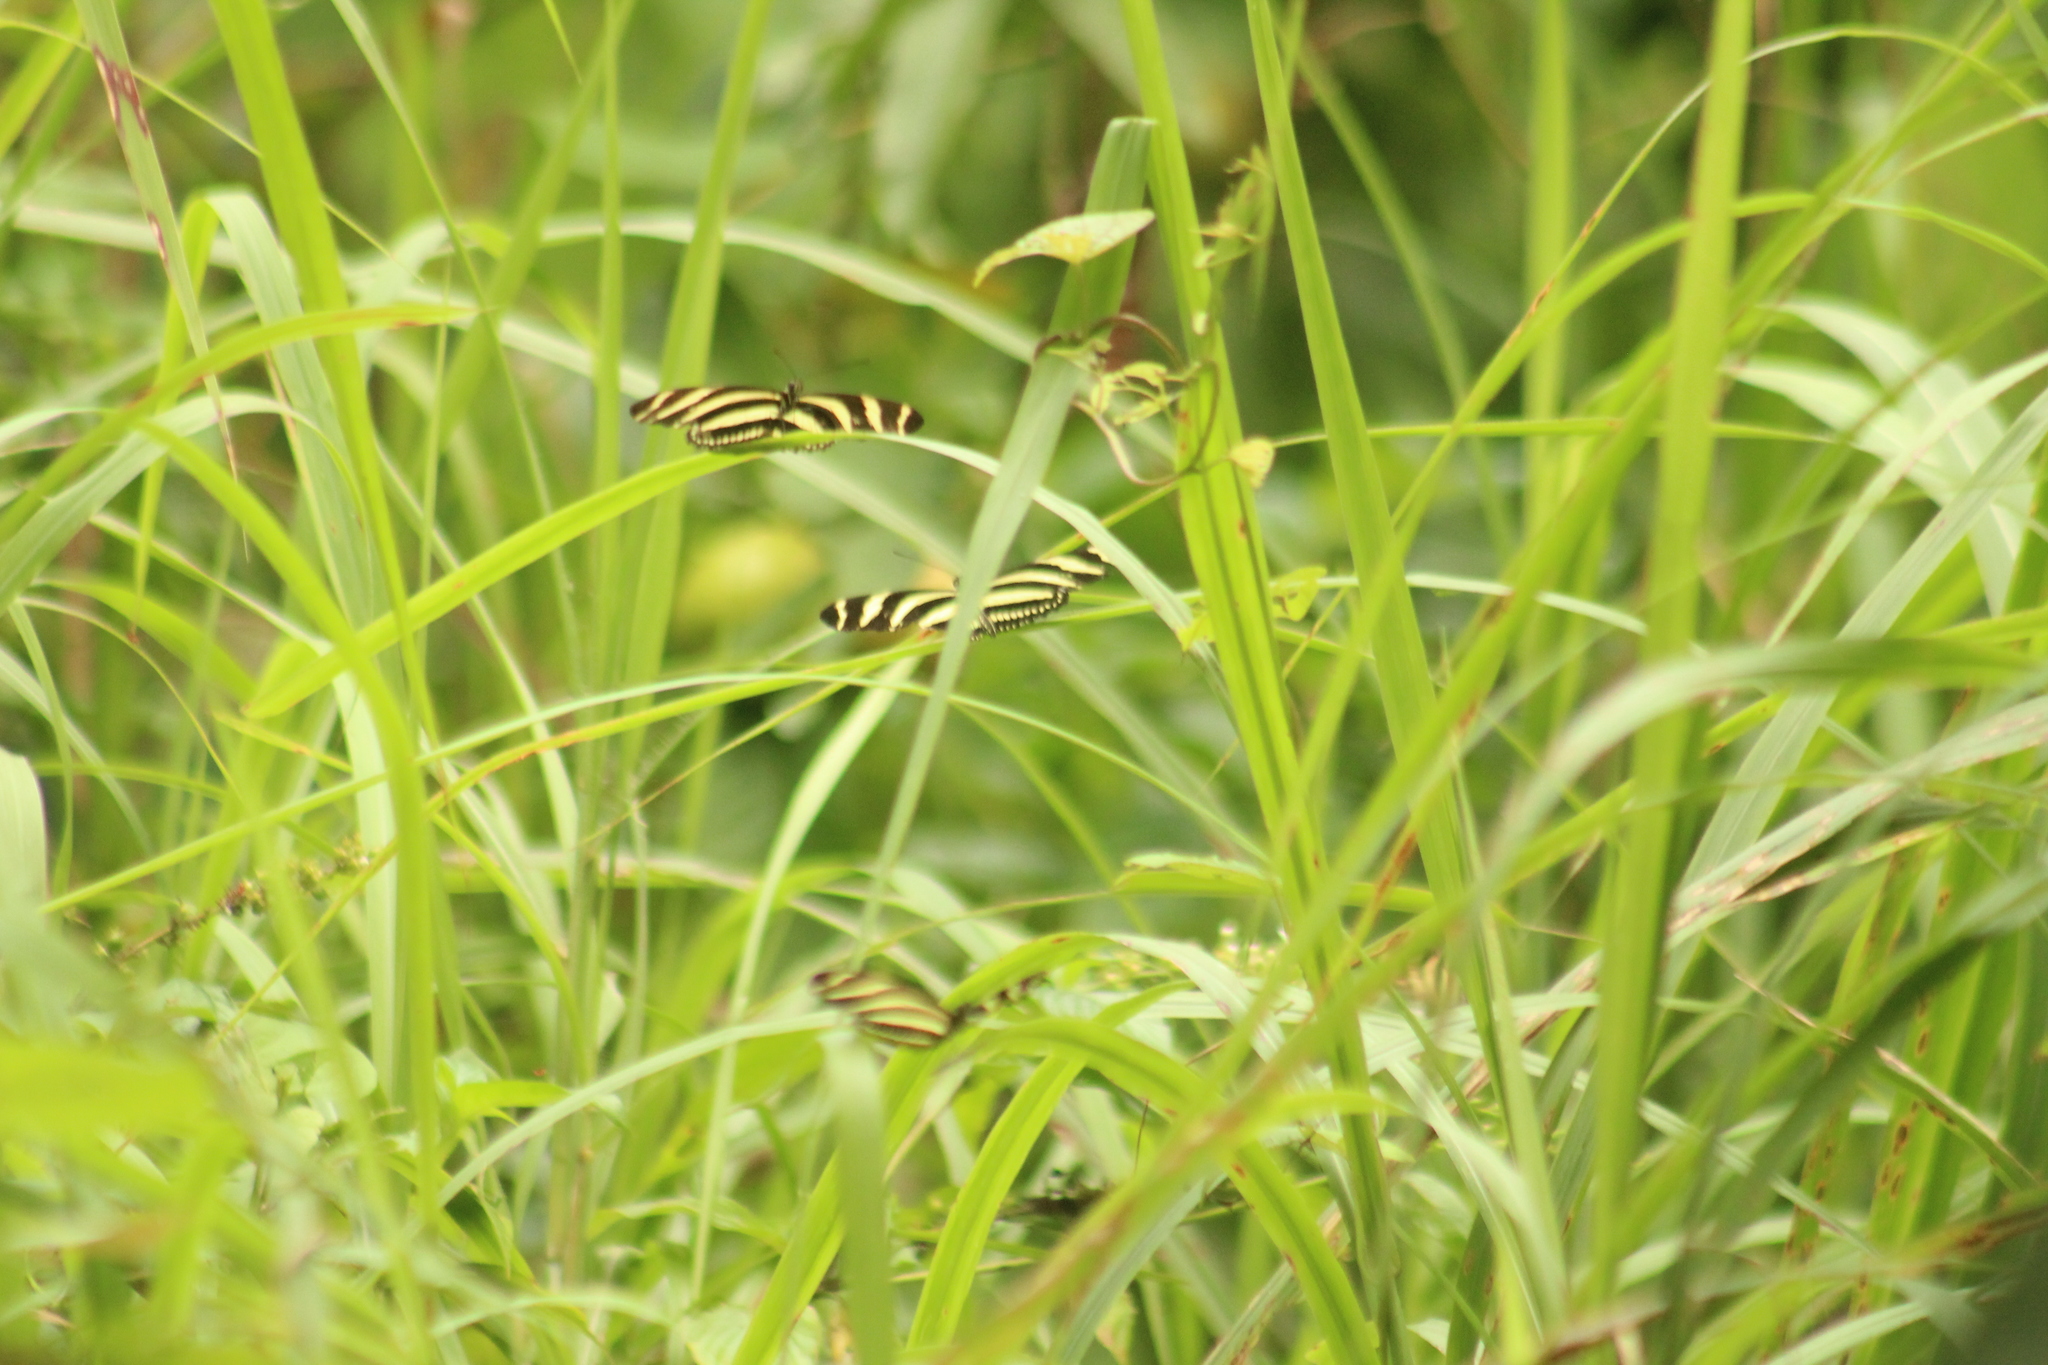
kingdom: Animalia
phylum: Arthropoda
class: Insecta
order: Lepidoptera
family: Nymphalidae
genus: Heliconius
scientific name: Heliconius charithonia
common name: Zebra long wing
